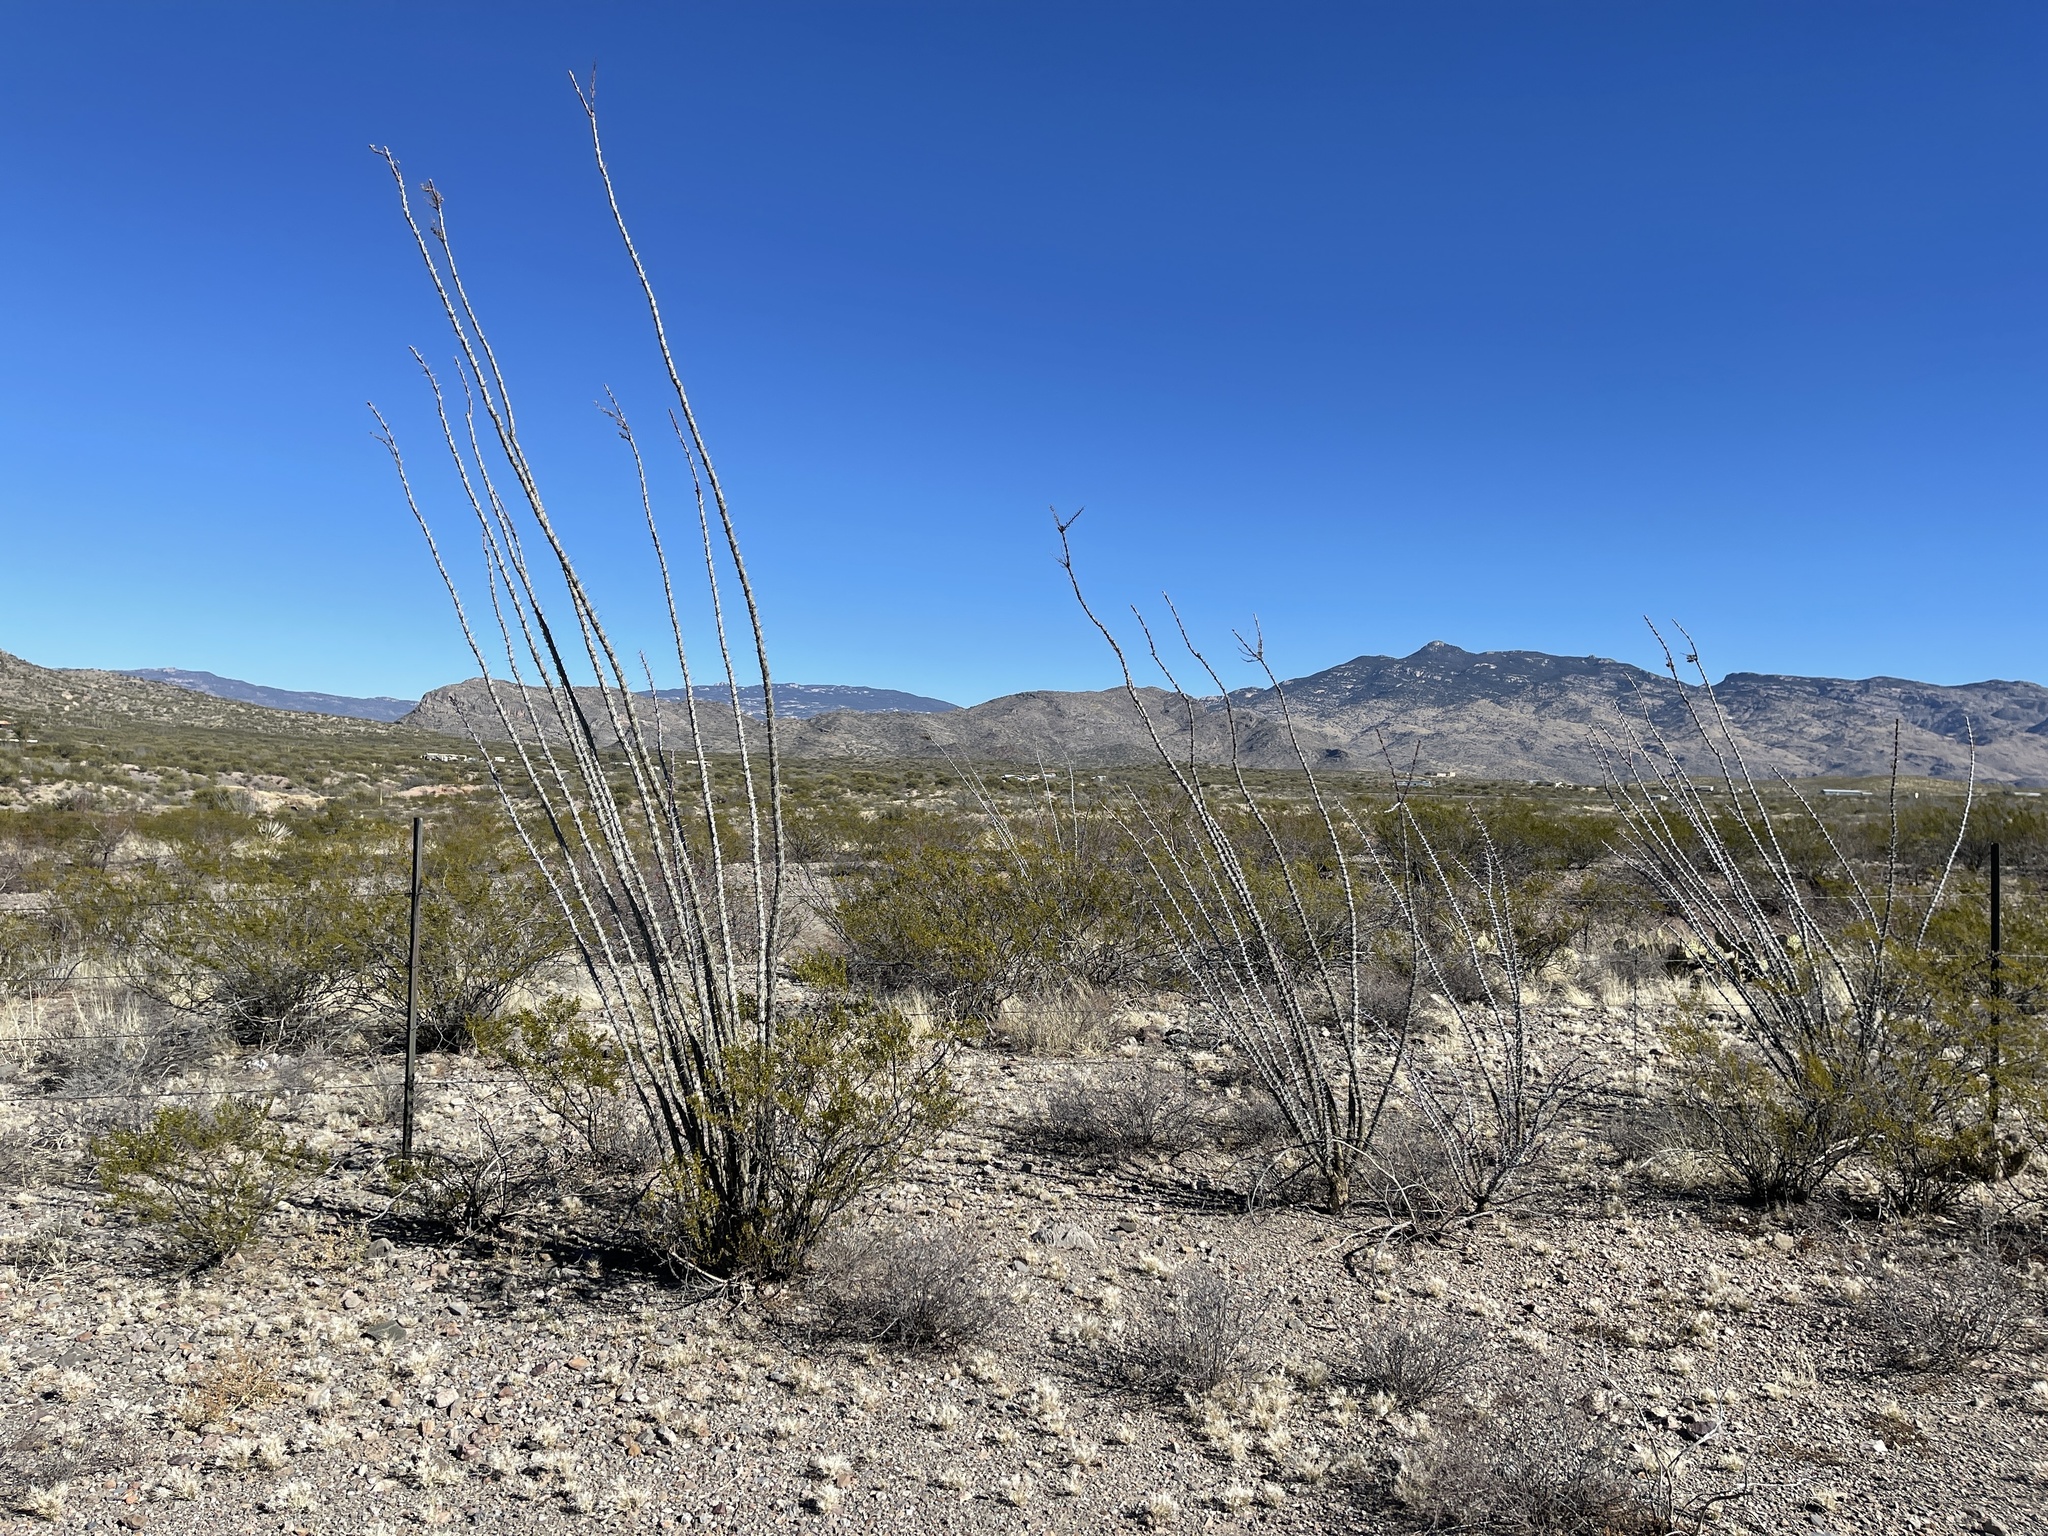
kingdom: Plantae
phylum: Tracheophyta
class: Magnoliopsida
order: Ericales
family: Fouquieriaceae
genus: Fouquieria
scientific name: Fouquieria splendens
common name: Vine-cactus
